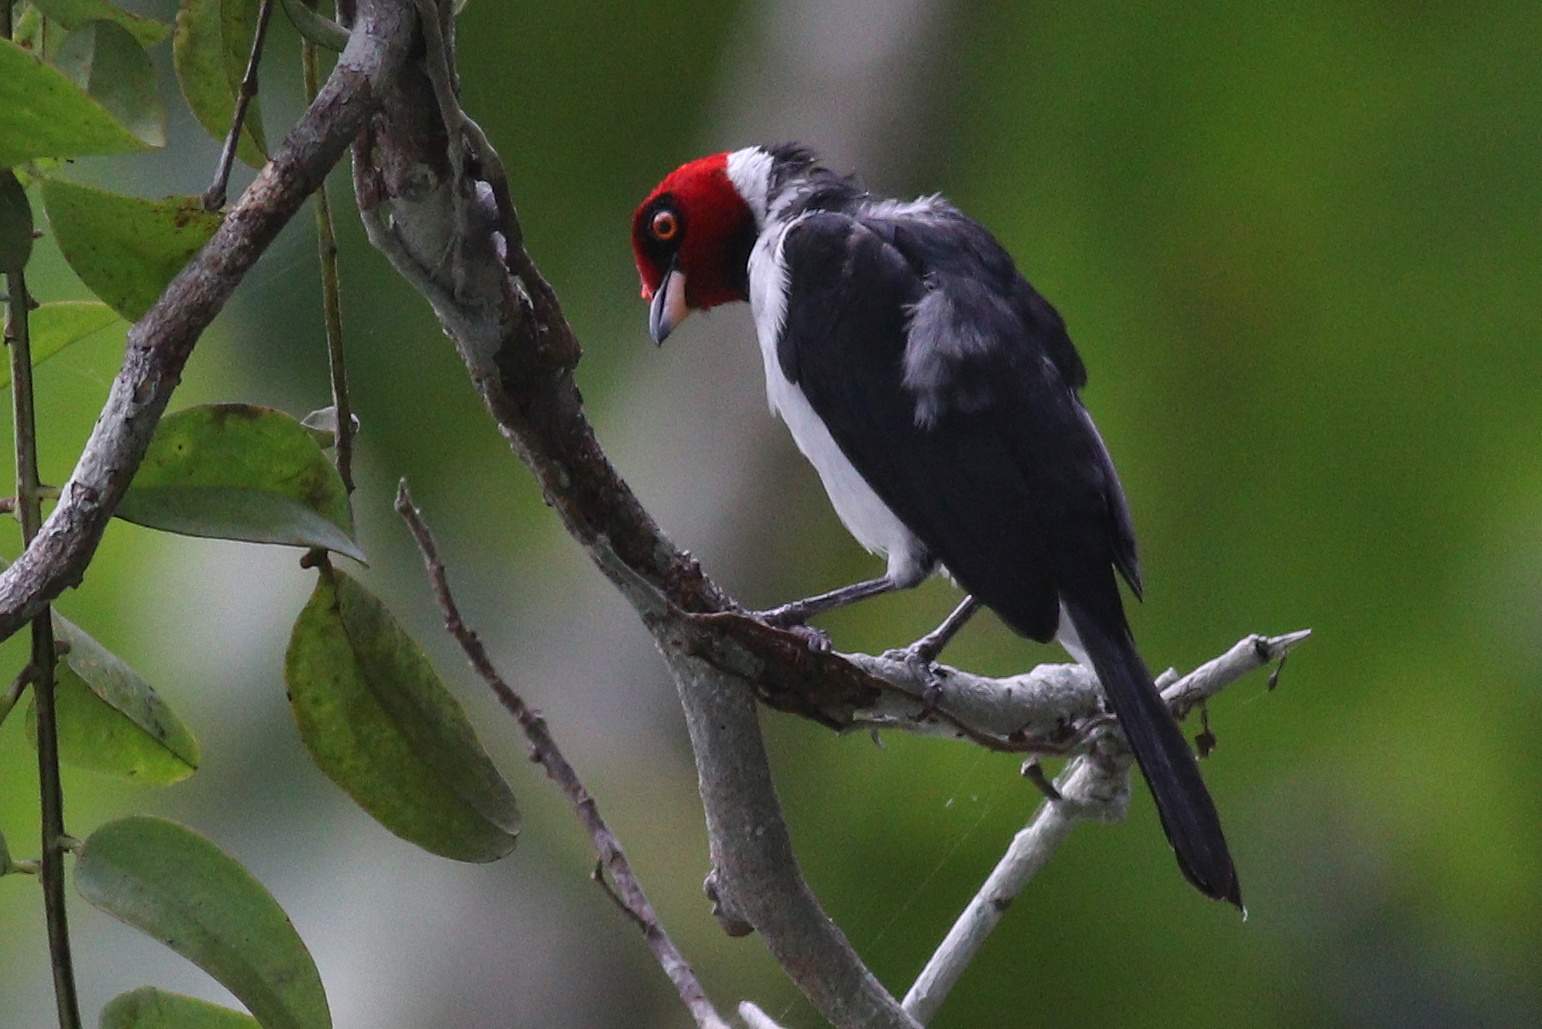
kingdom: Animalia
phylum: Chordata
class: Aves
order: Passeriformes
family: Thraupidae
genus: Paroaria
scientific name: Paroaria gularis
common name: Red-capped cardinal
